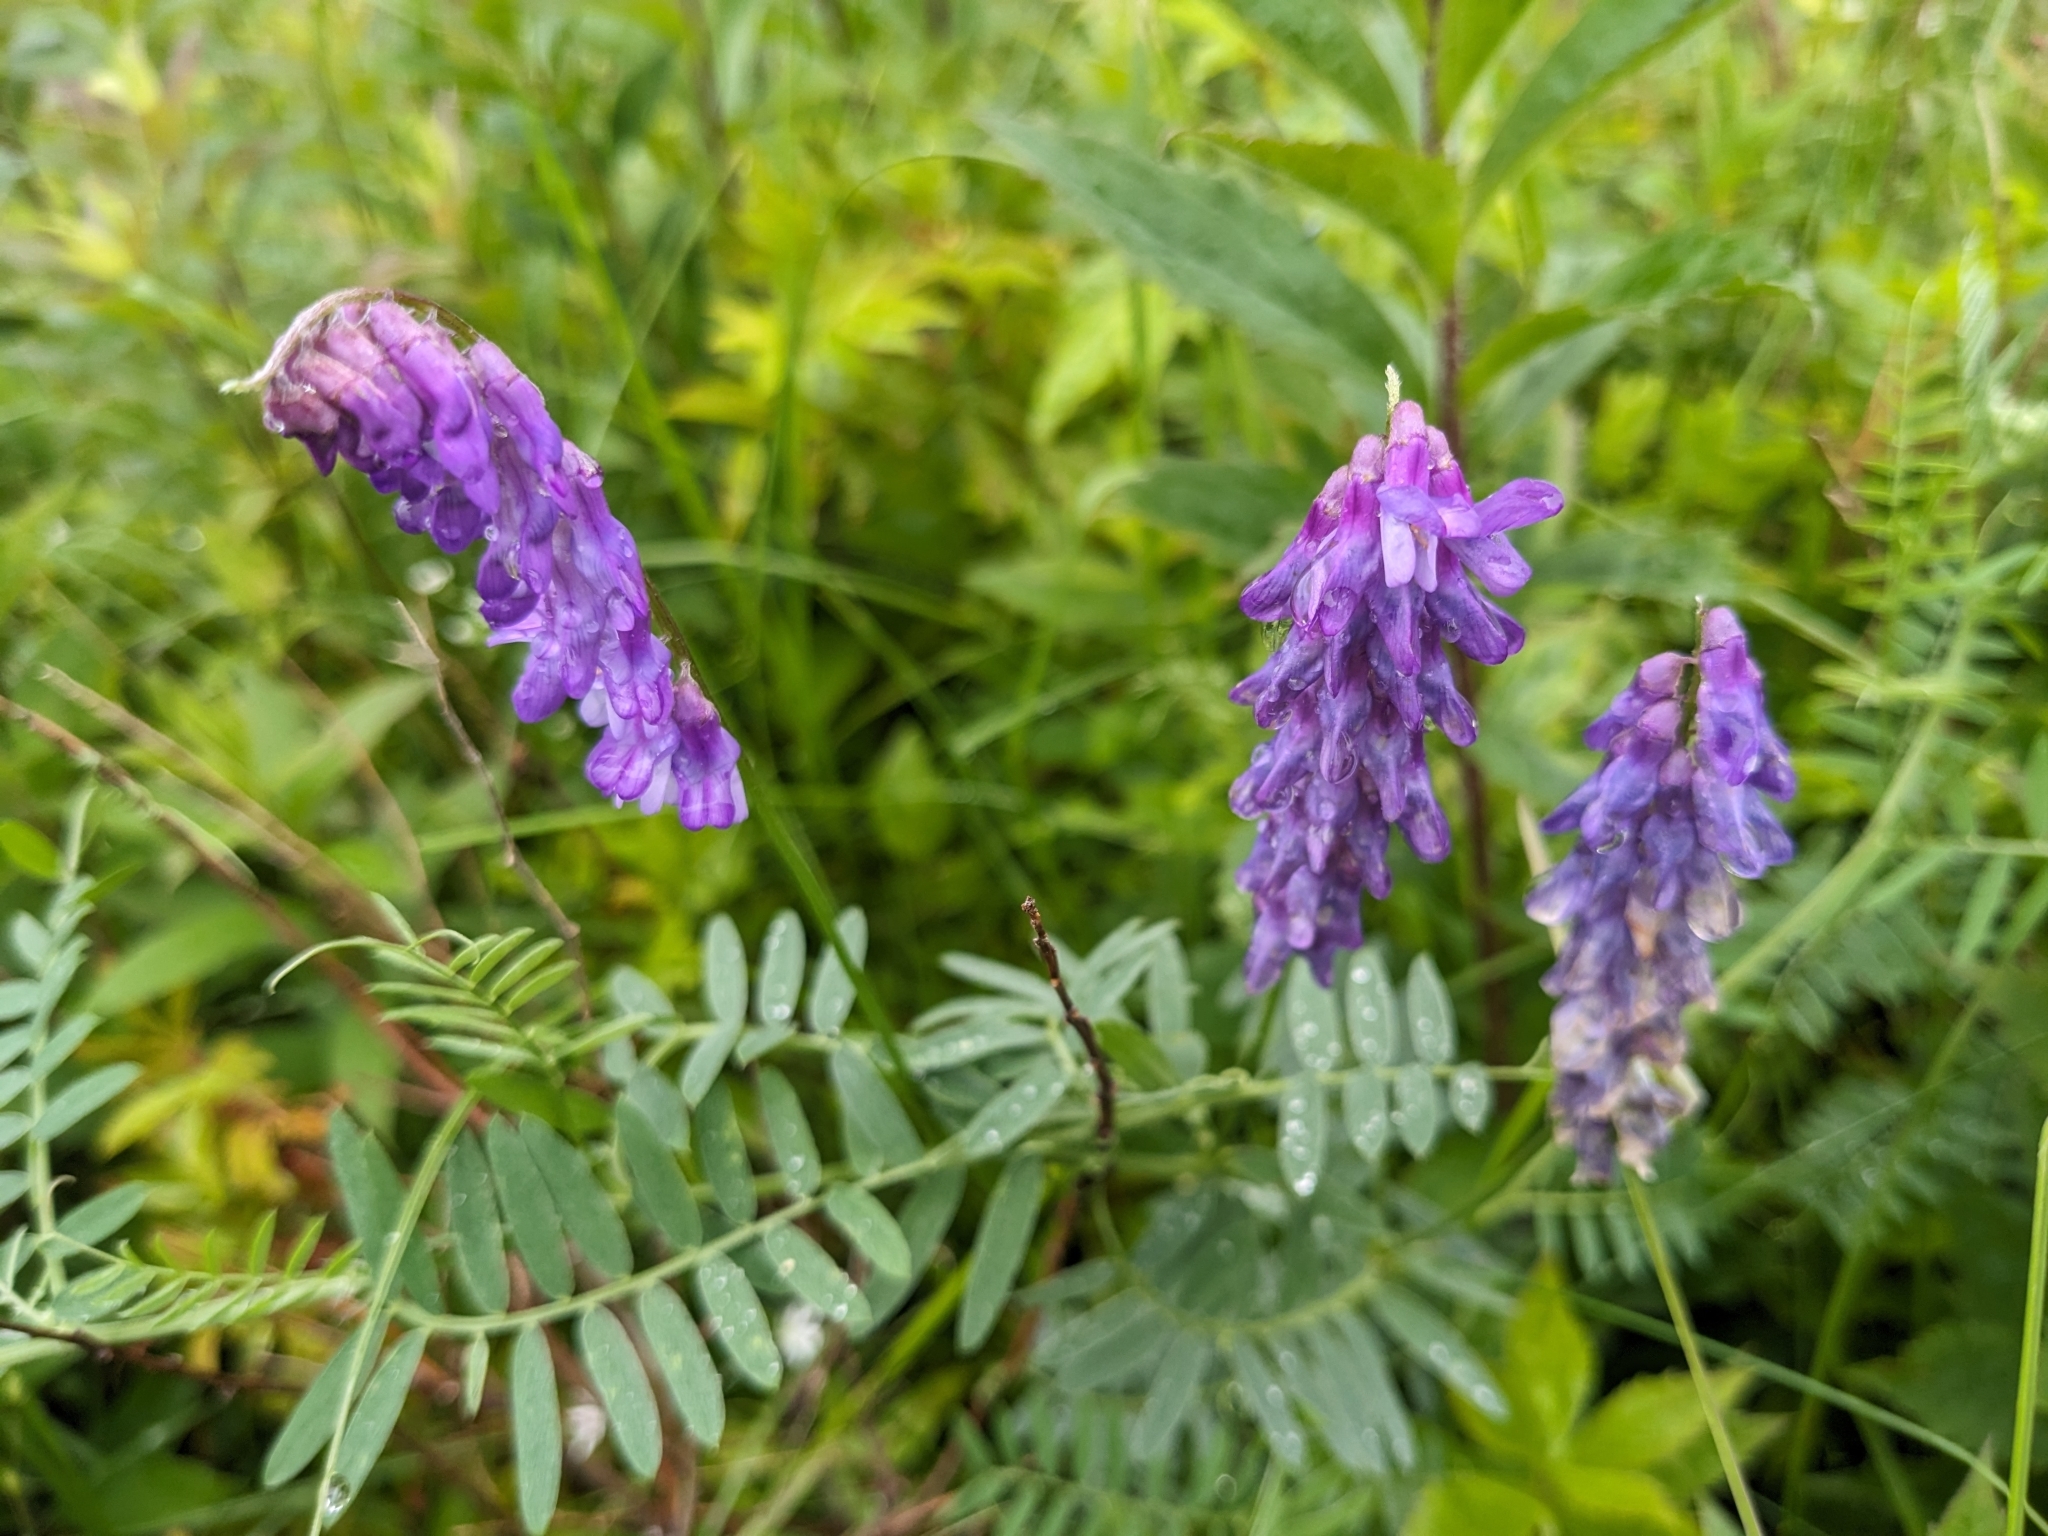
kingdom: Plantae
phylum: Tracheophyta
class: Magnoliopsida
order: Fabales
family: Fabaceae
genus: Vicia
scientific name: Vicia cracca
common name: Bird vetch
